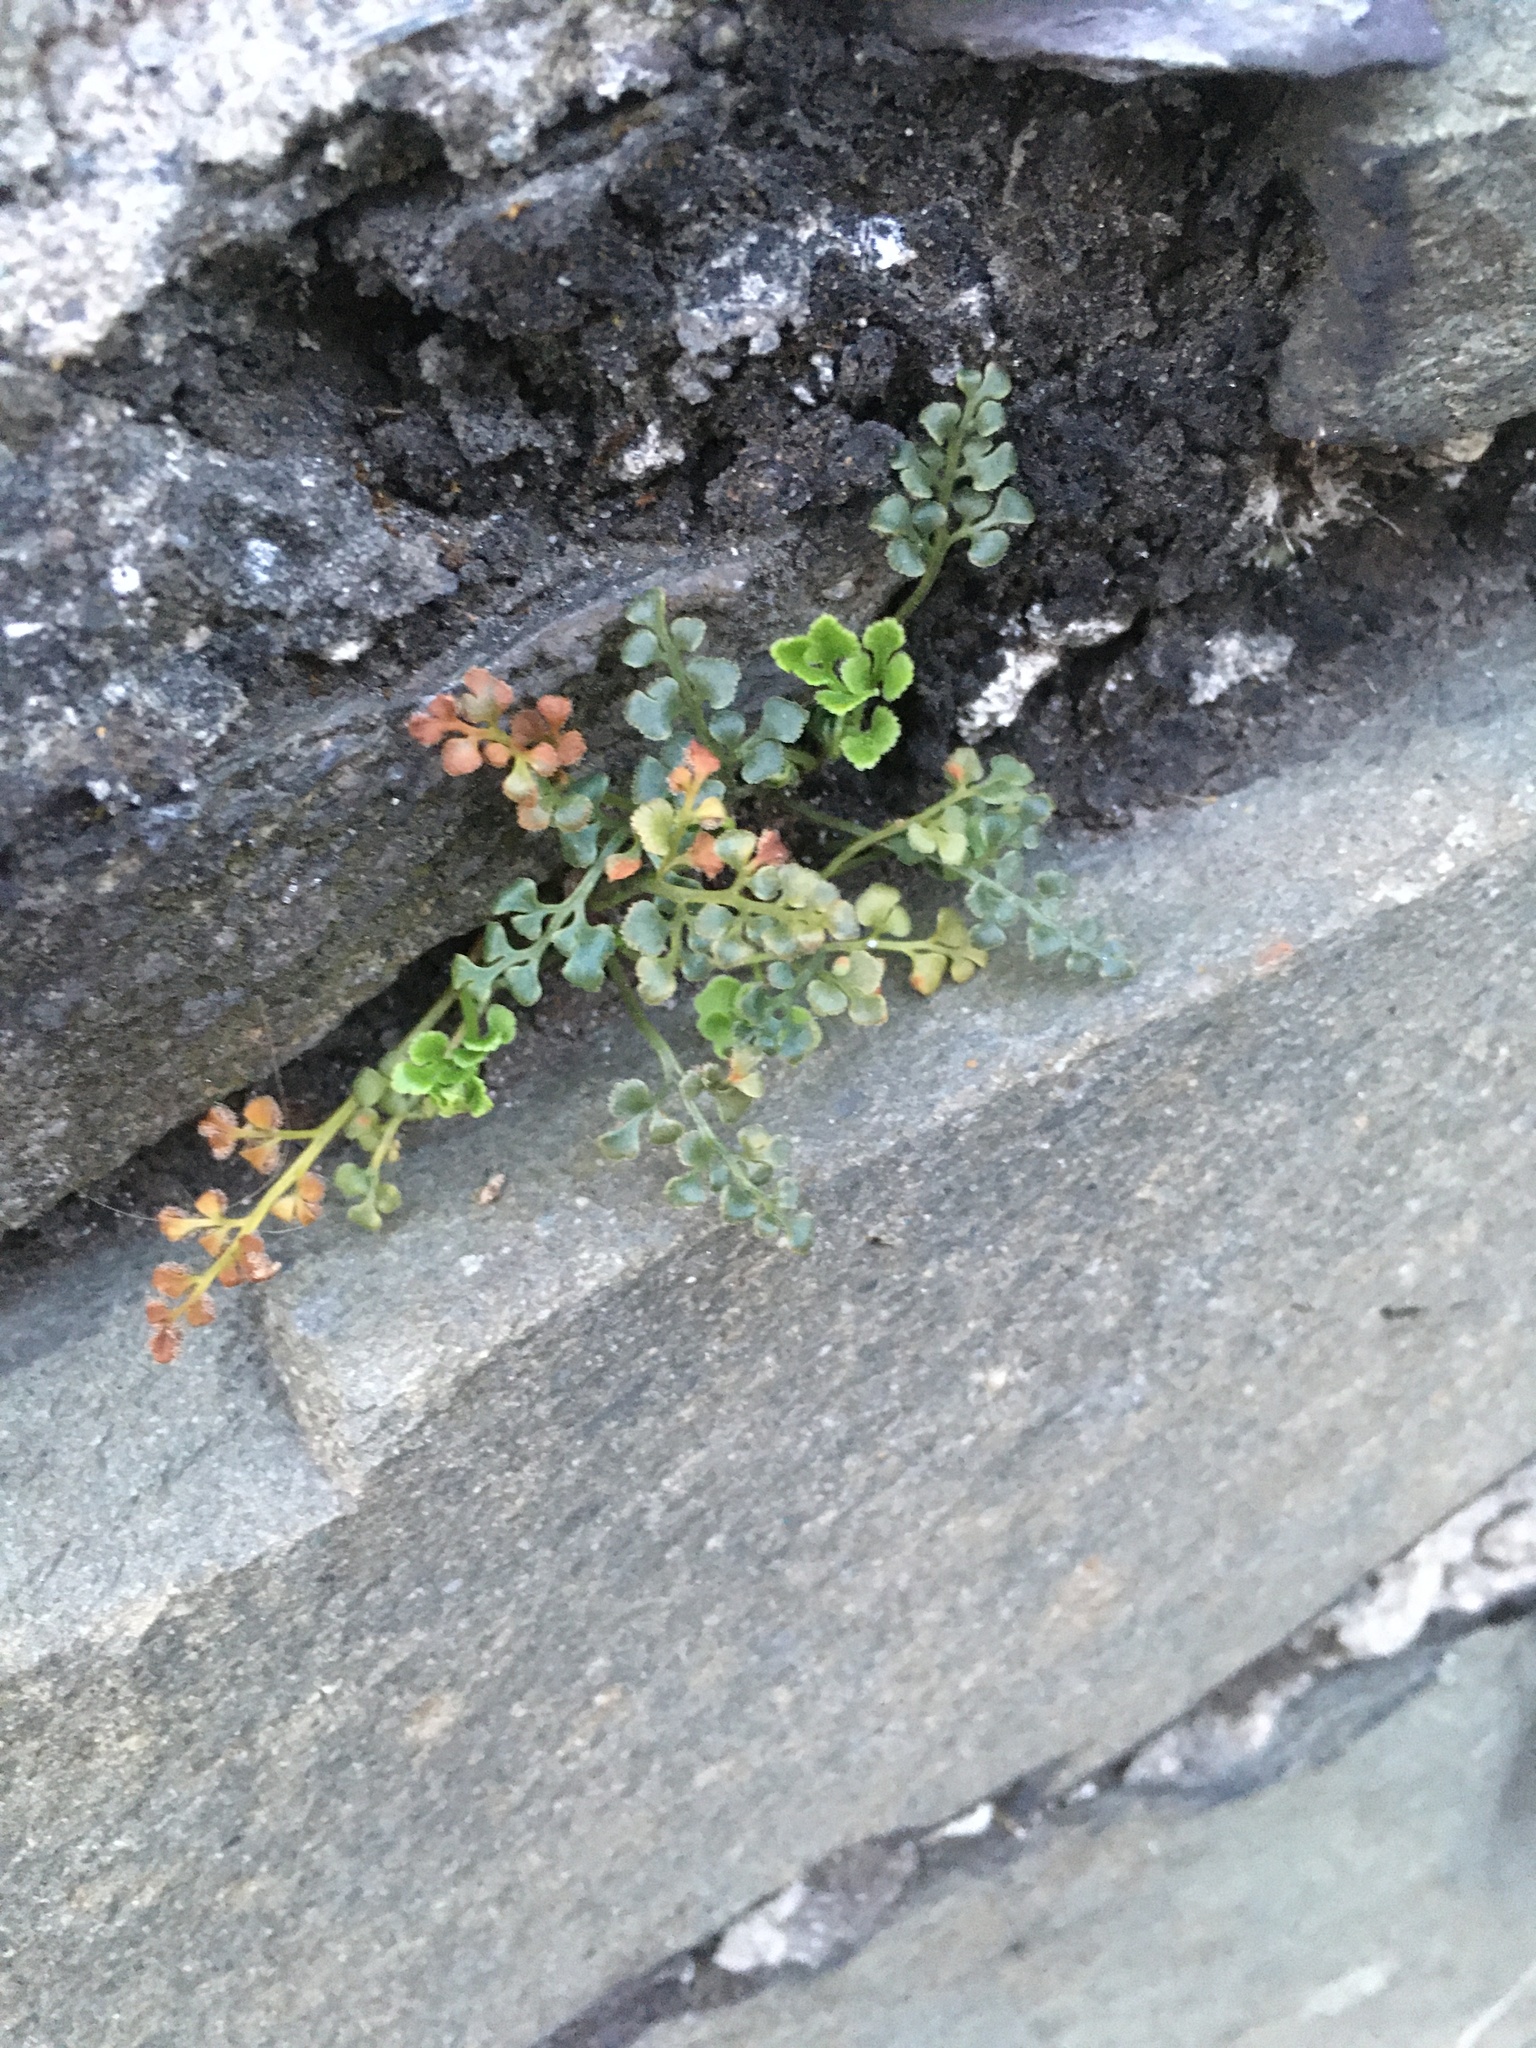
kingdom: Plantae
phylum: Tracheophyta
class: Polypodiopsida
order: Polypodiales
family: Aspleniaceae
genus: Asplenium
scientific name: Asplenium ruta-muraria
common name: Wall-rue
